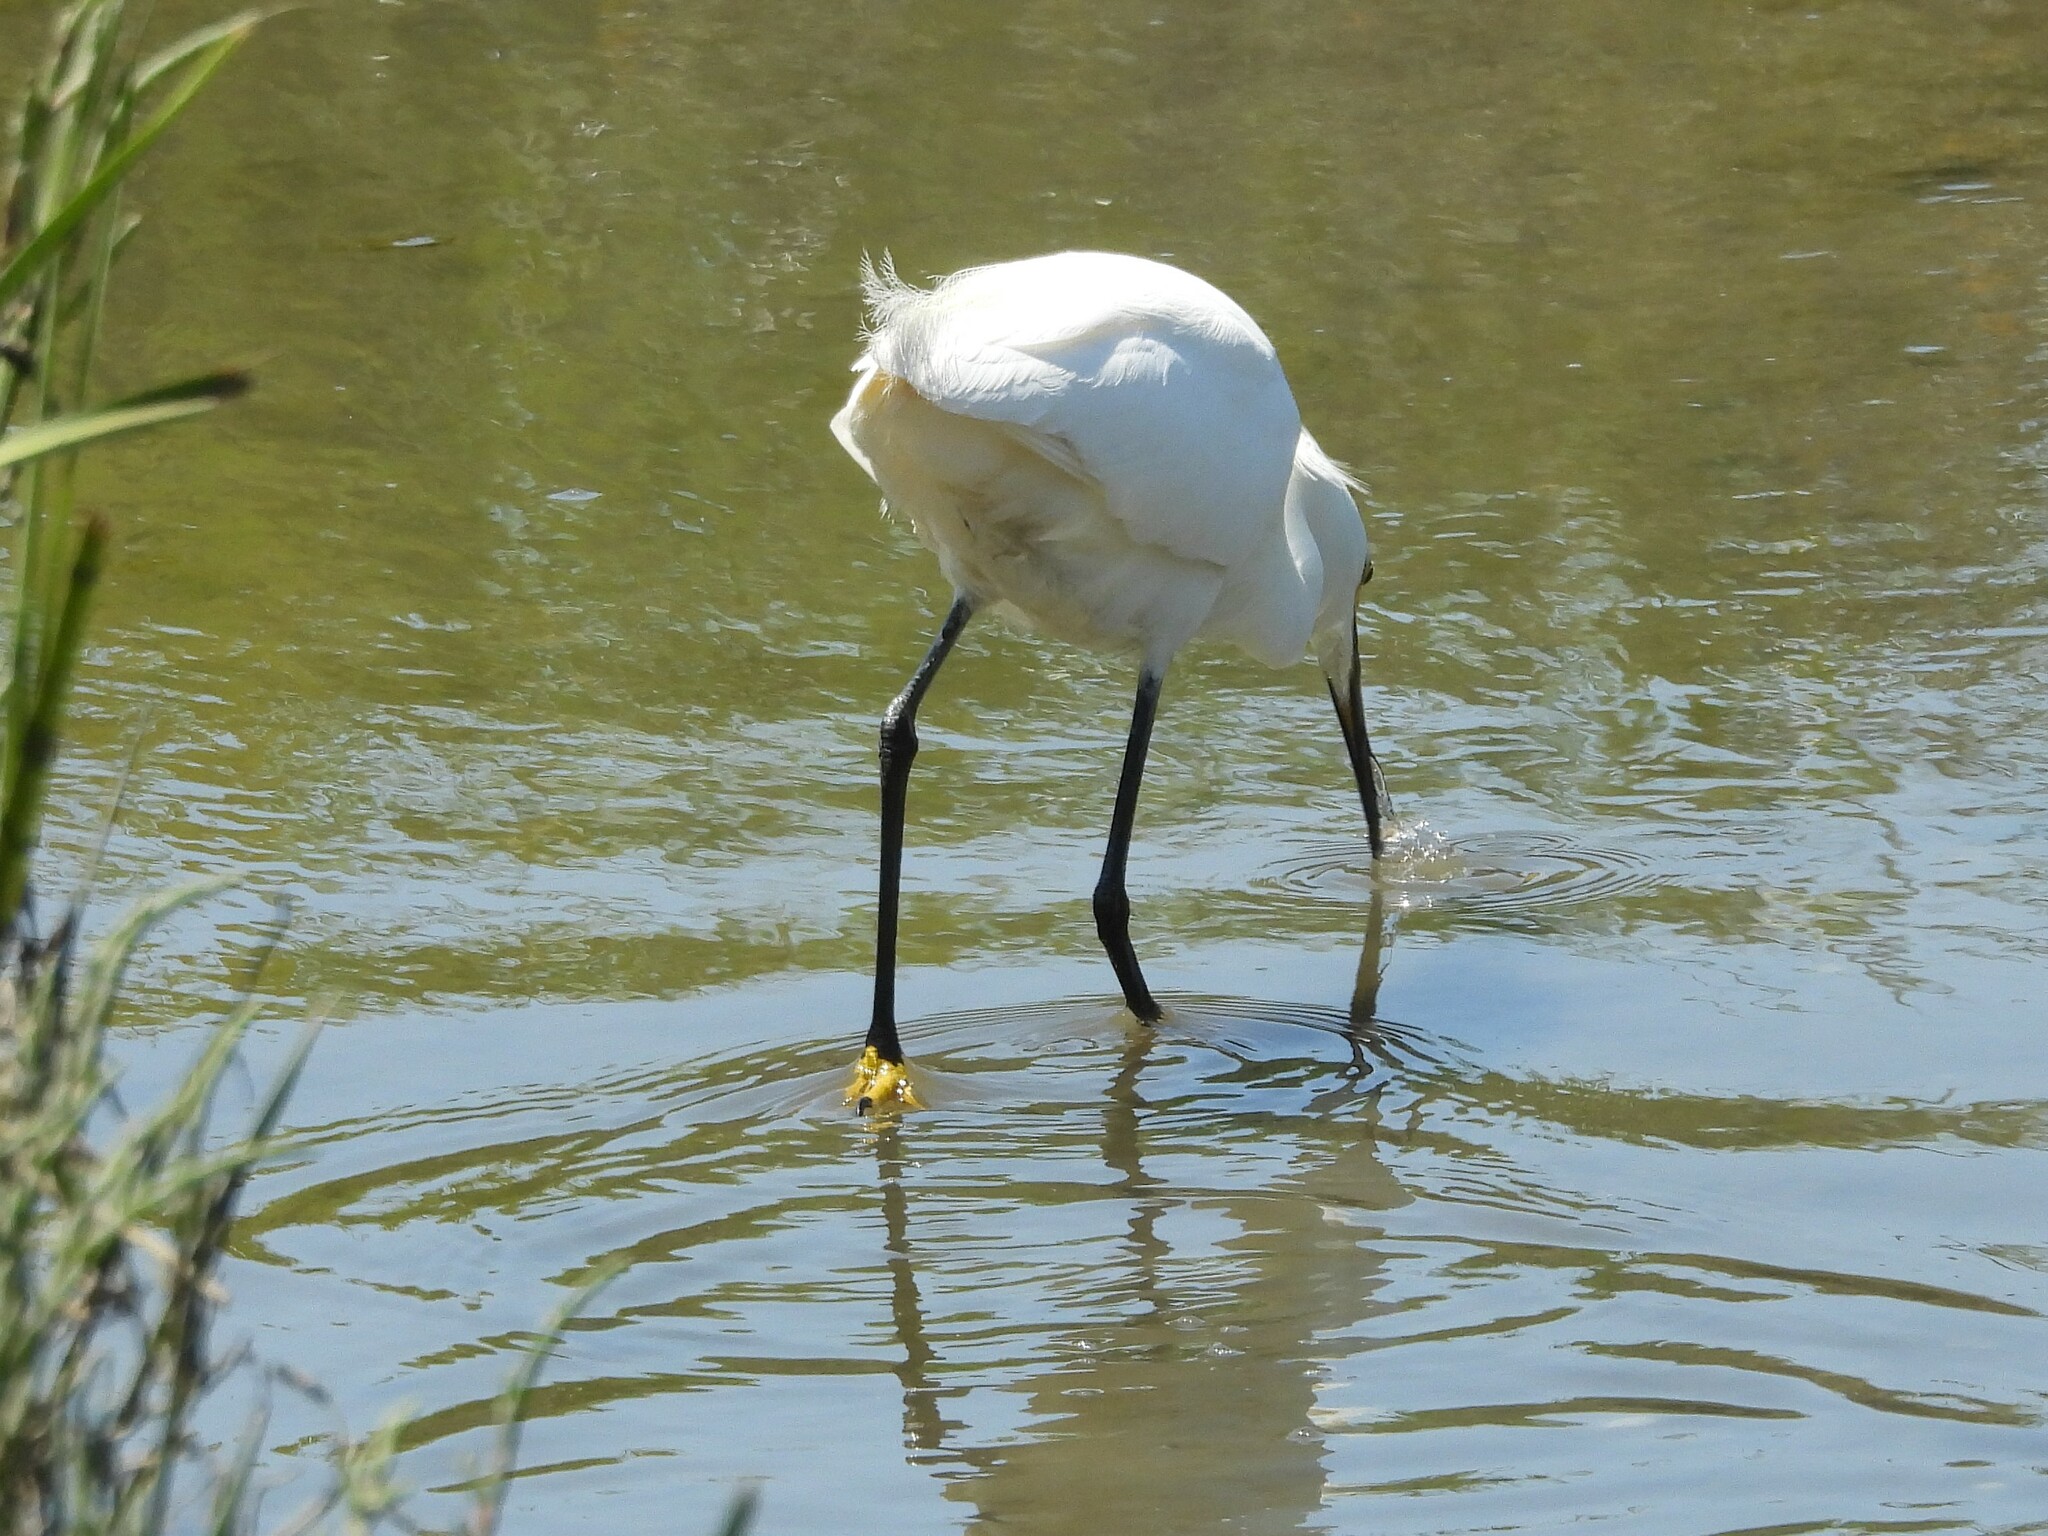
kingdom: Animalia
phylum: Chordata
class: Aves
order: Pelecaniformes
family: Ardeidae
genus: Egretta
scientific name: Egretta thula
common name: Snowy egret
